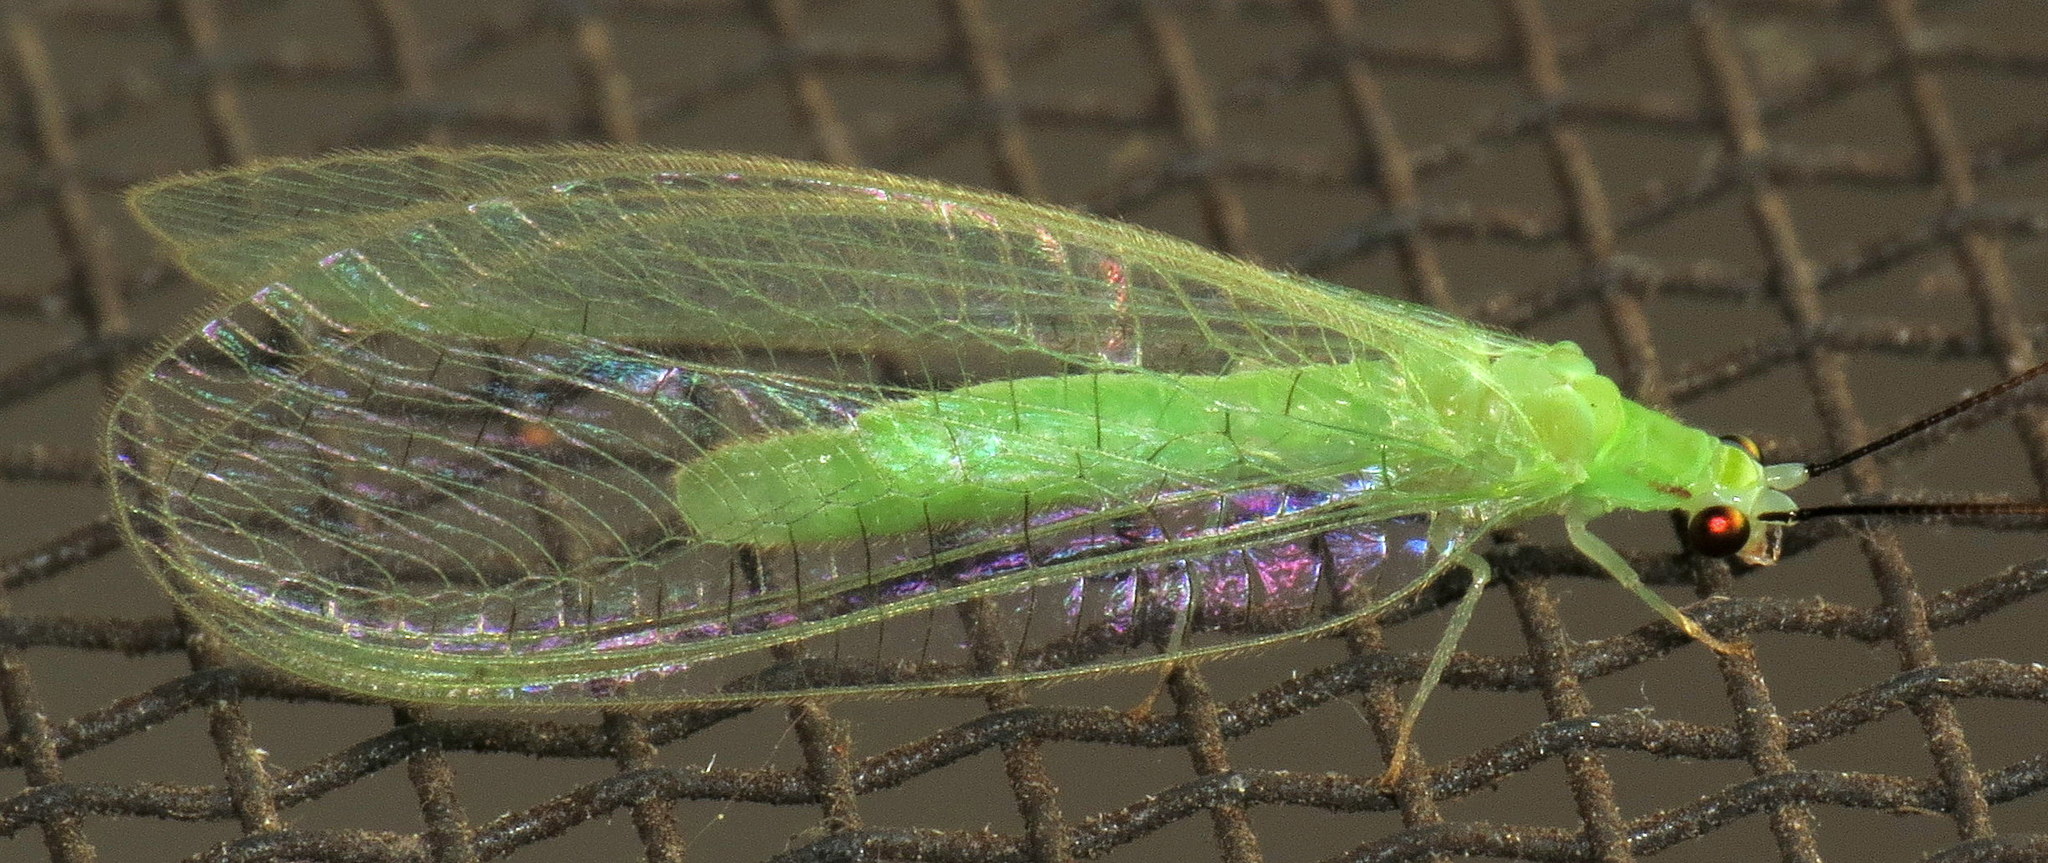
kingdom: Animalia
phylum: Arthropoda
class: Insecta
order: Neuroptera
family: Chrysopidae
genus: Ceraeochrysa
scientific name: Ceraeochrysa lineaticornis
